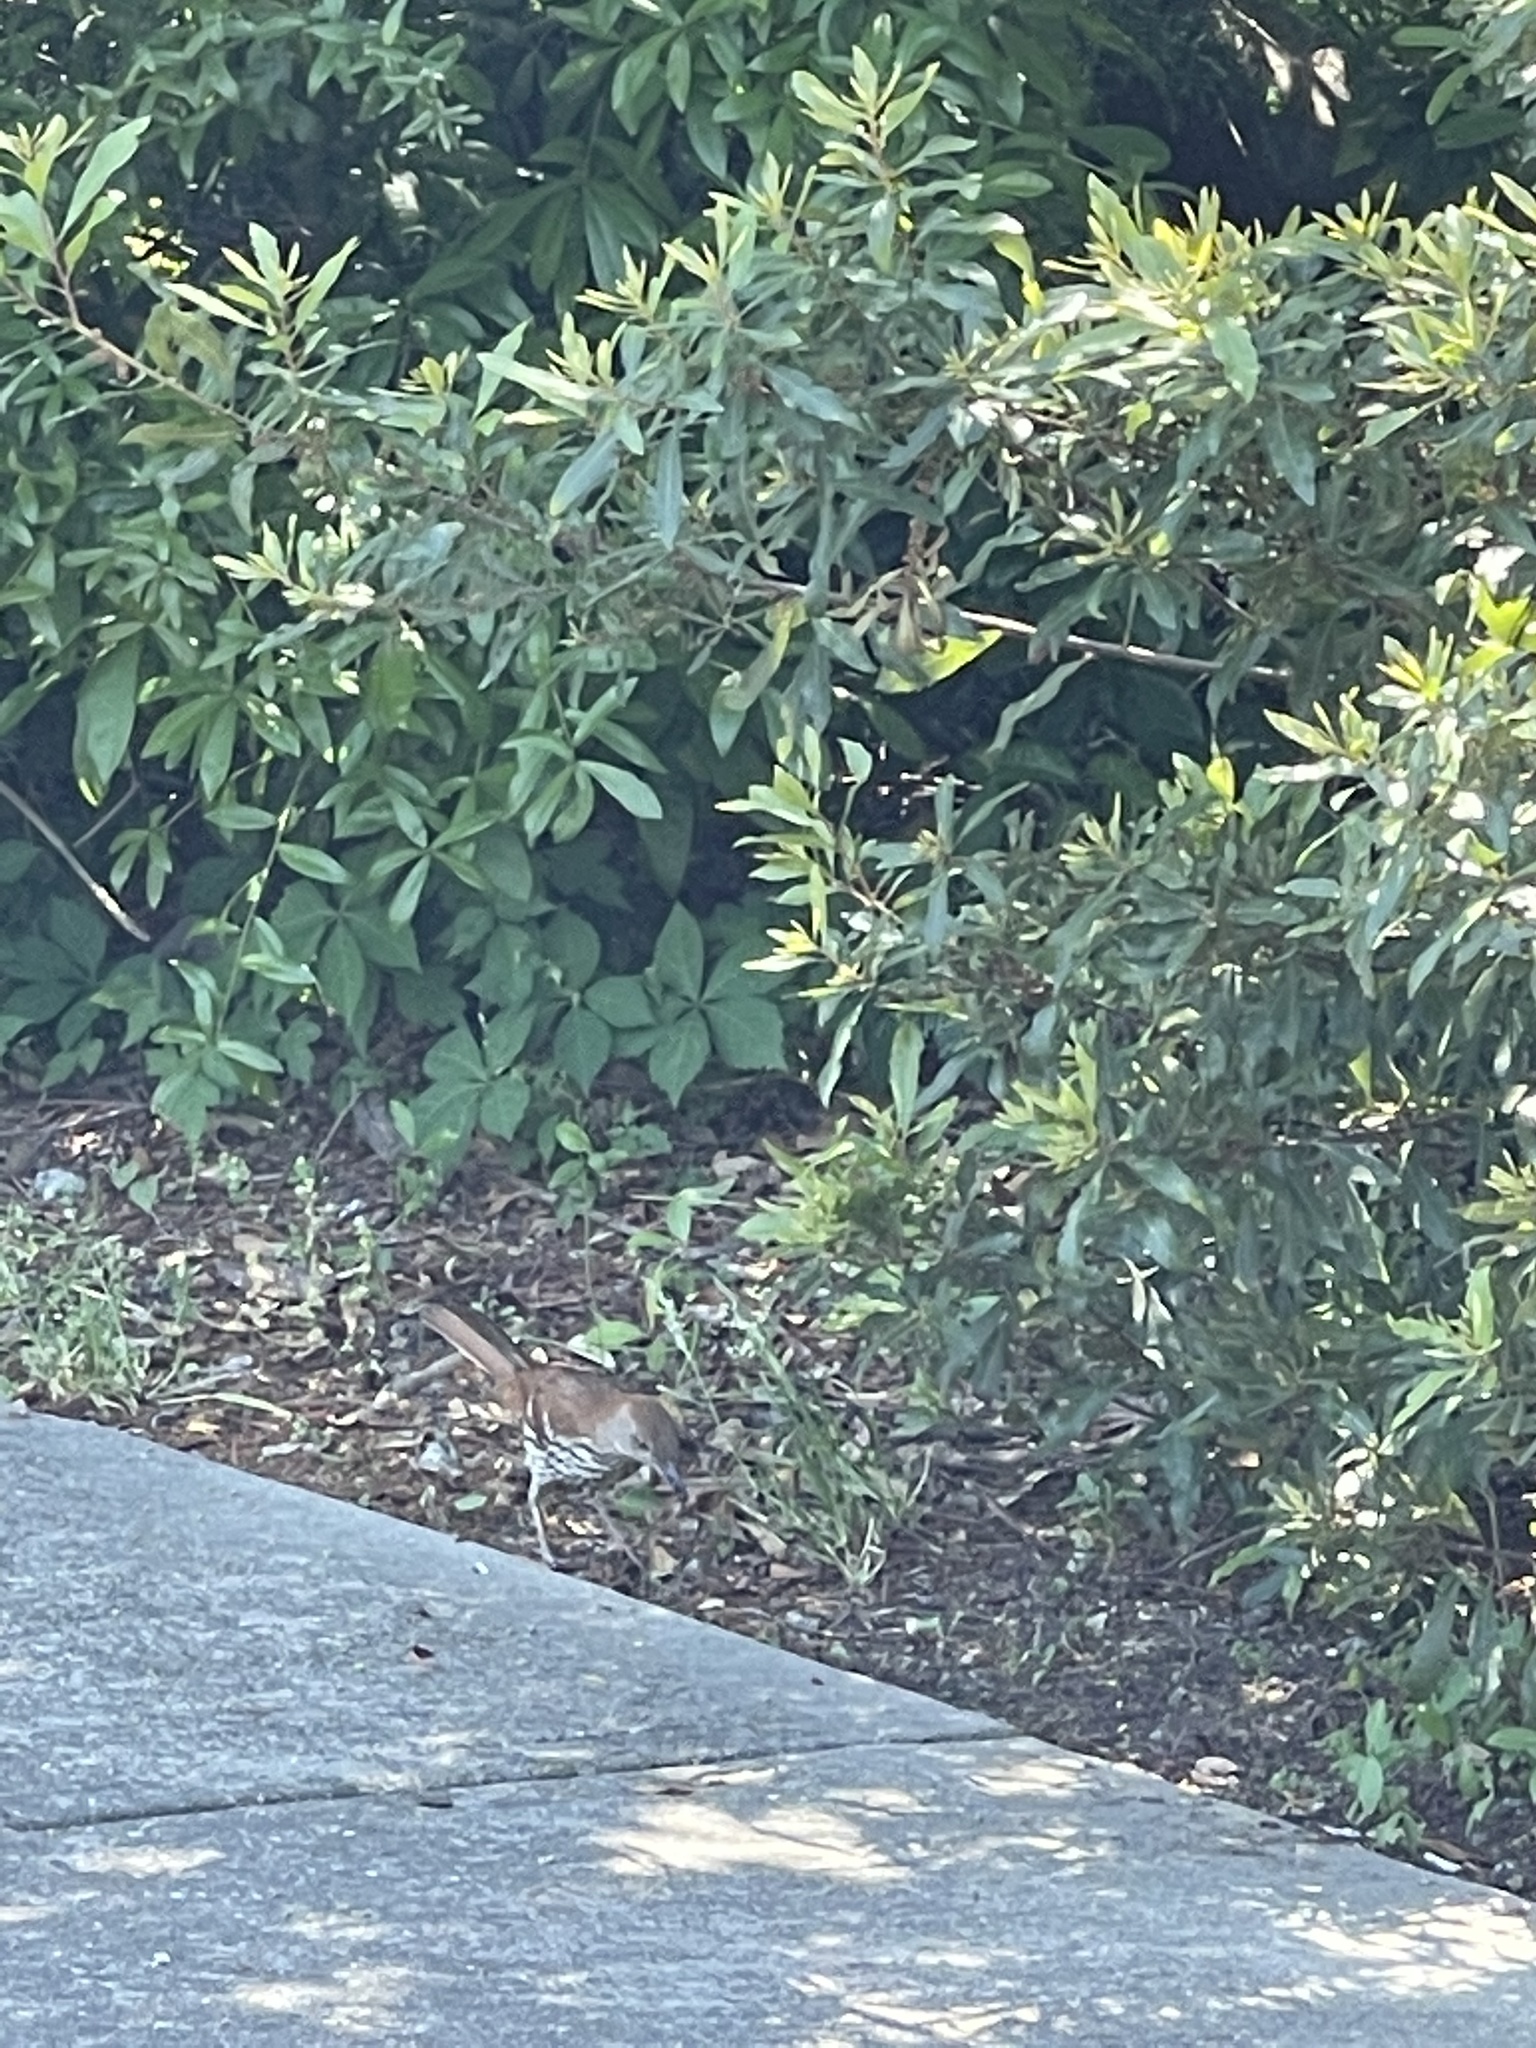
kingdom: Animalia
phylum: Chordata
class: Aves
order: Passeriformes
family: Mimidae
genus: Toxostoma
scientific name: Toxostoma rufum
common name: Brown thrasher
